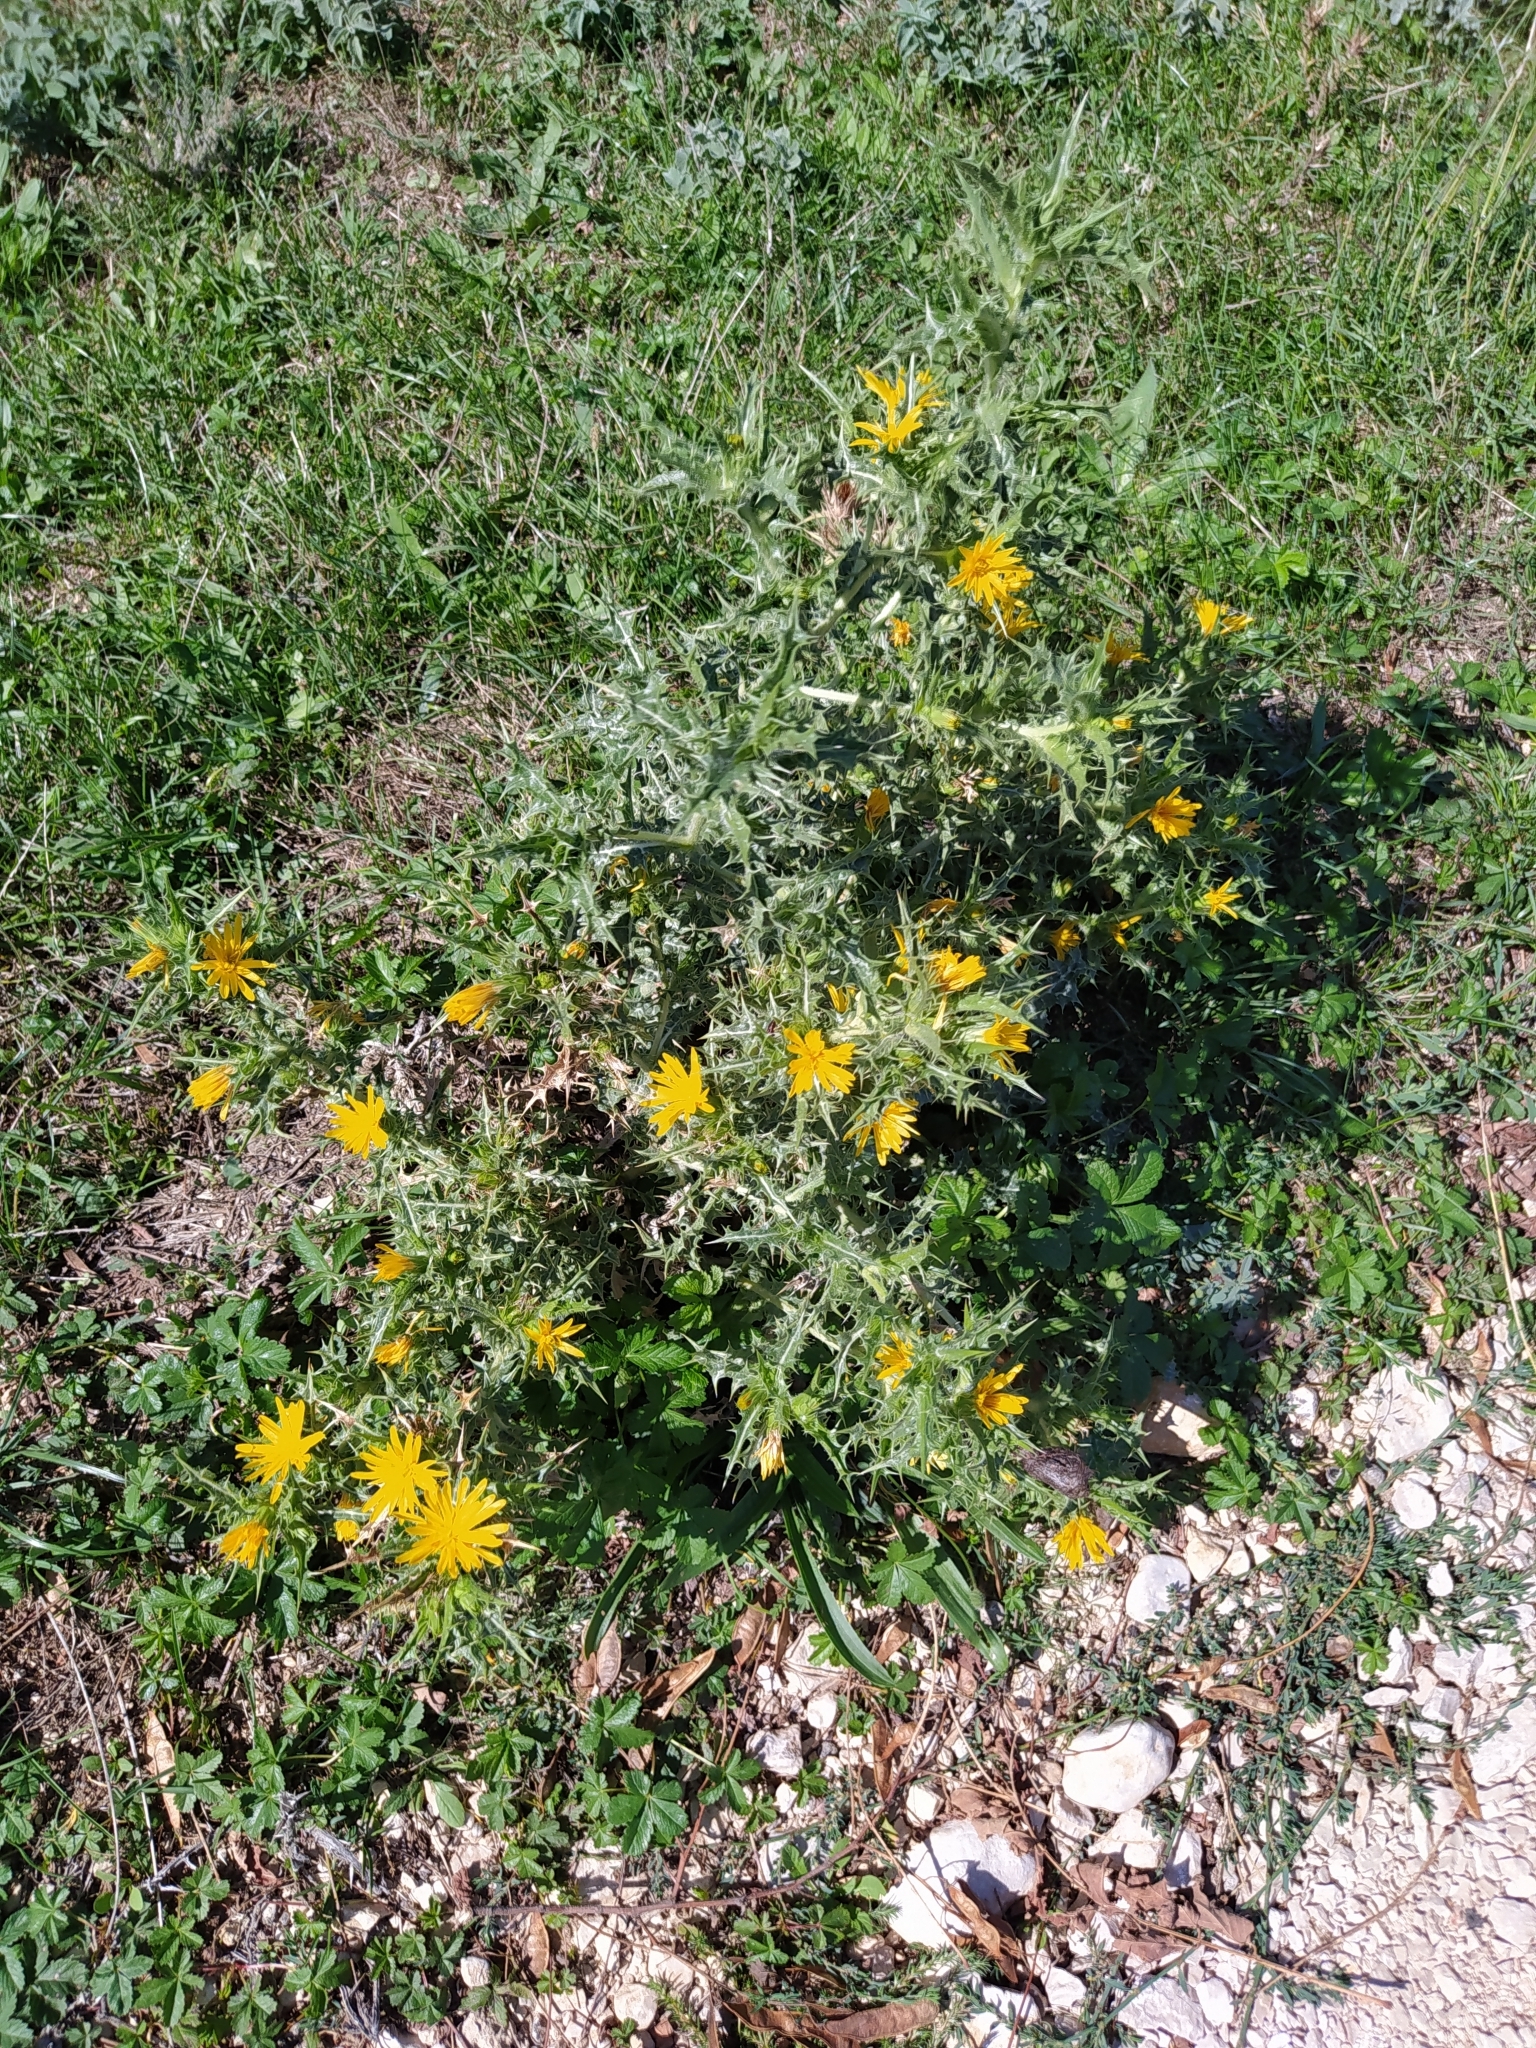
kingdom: Plantae
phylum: Tracheophyta
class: Magnoliopsida
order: Asterales
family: Asteraceae
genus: Scolymus
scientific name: Scolymus hispanicus
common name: Golden thistle
